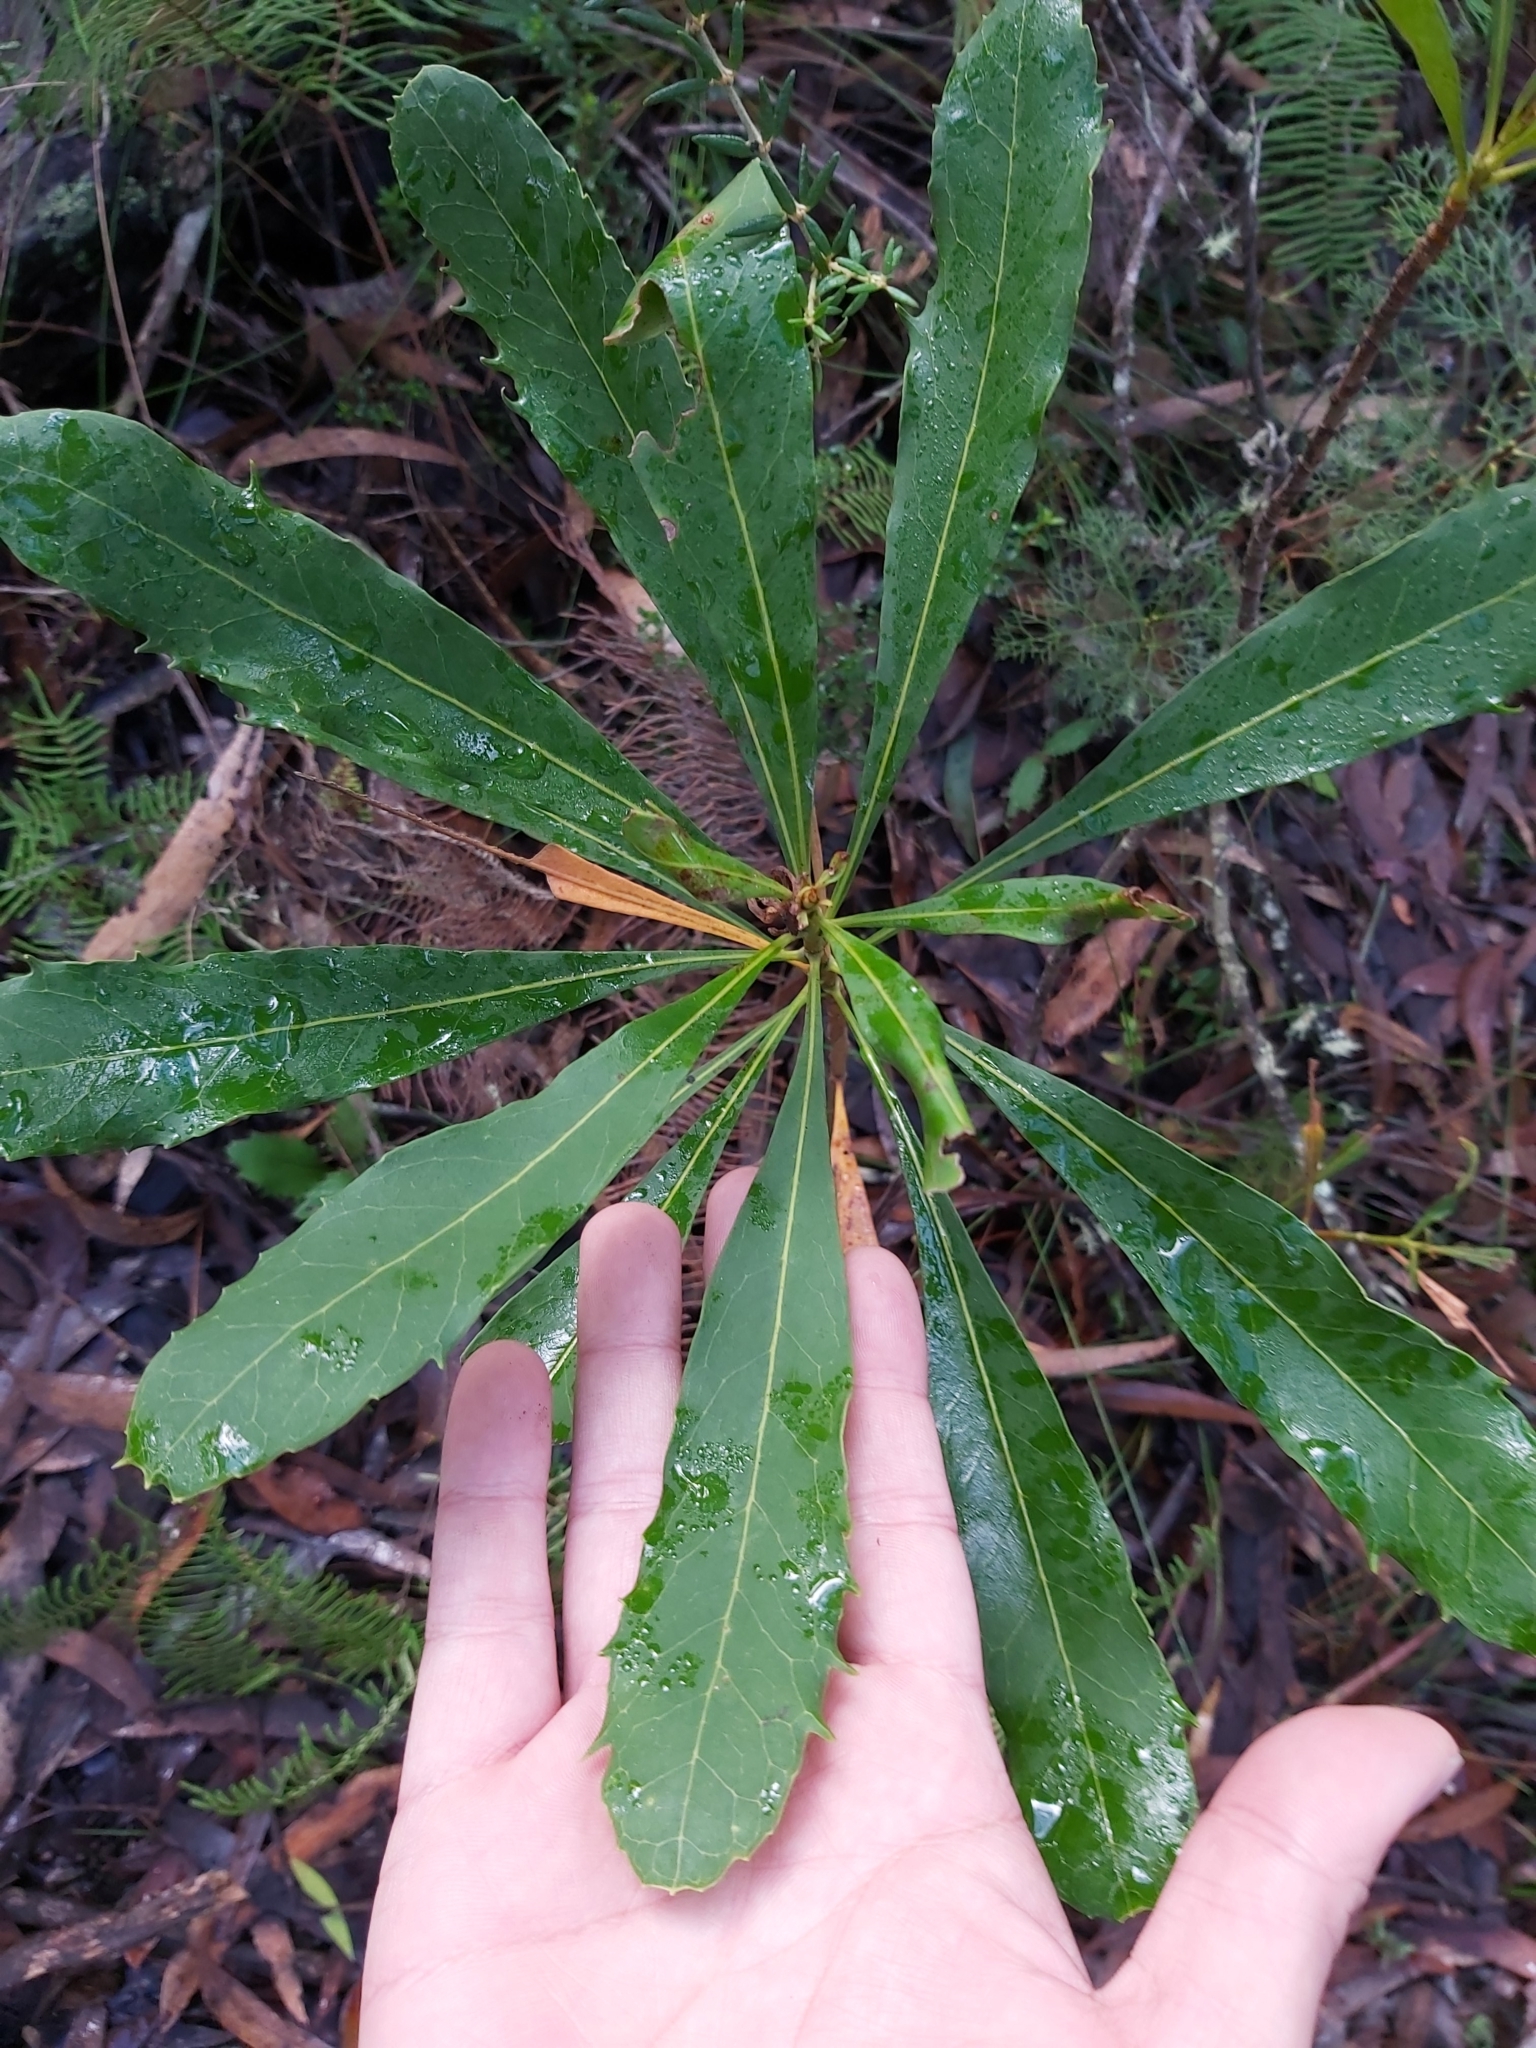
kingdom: Plantae
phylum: Tracheophyta
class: Magnoliopsida
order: Proteales
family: Proteaceae
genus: Telopea
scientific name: Telopea speciosissima
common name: New south wales waratah
